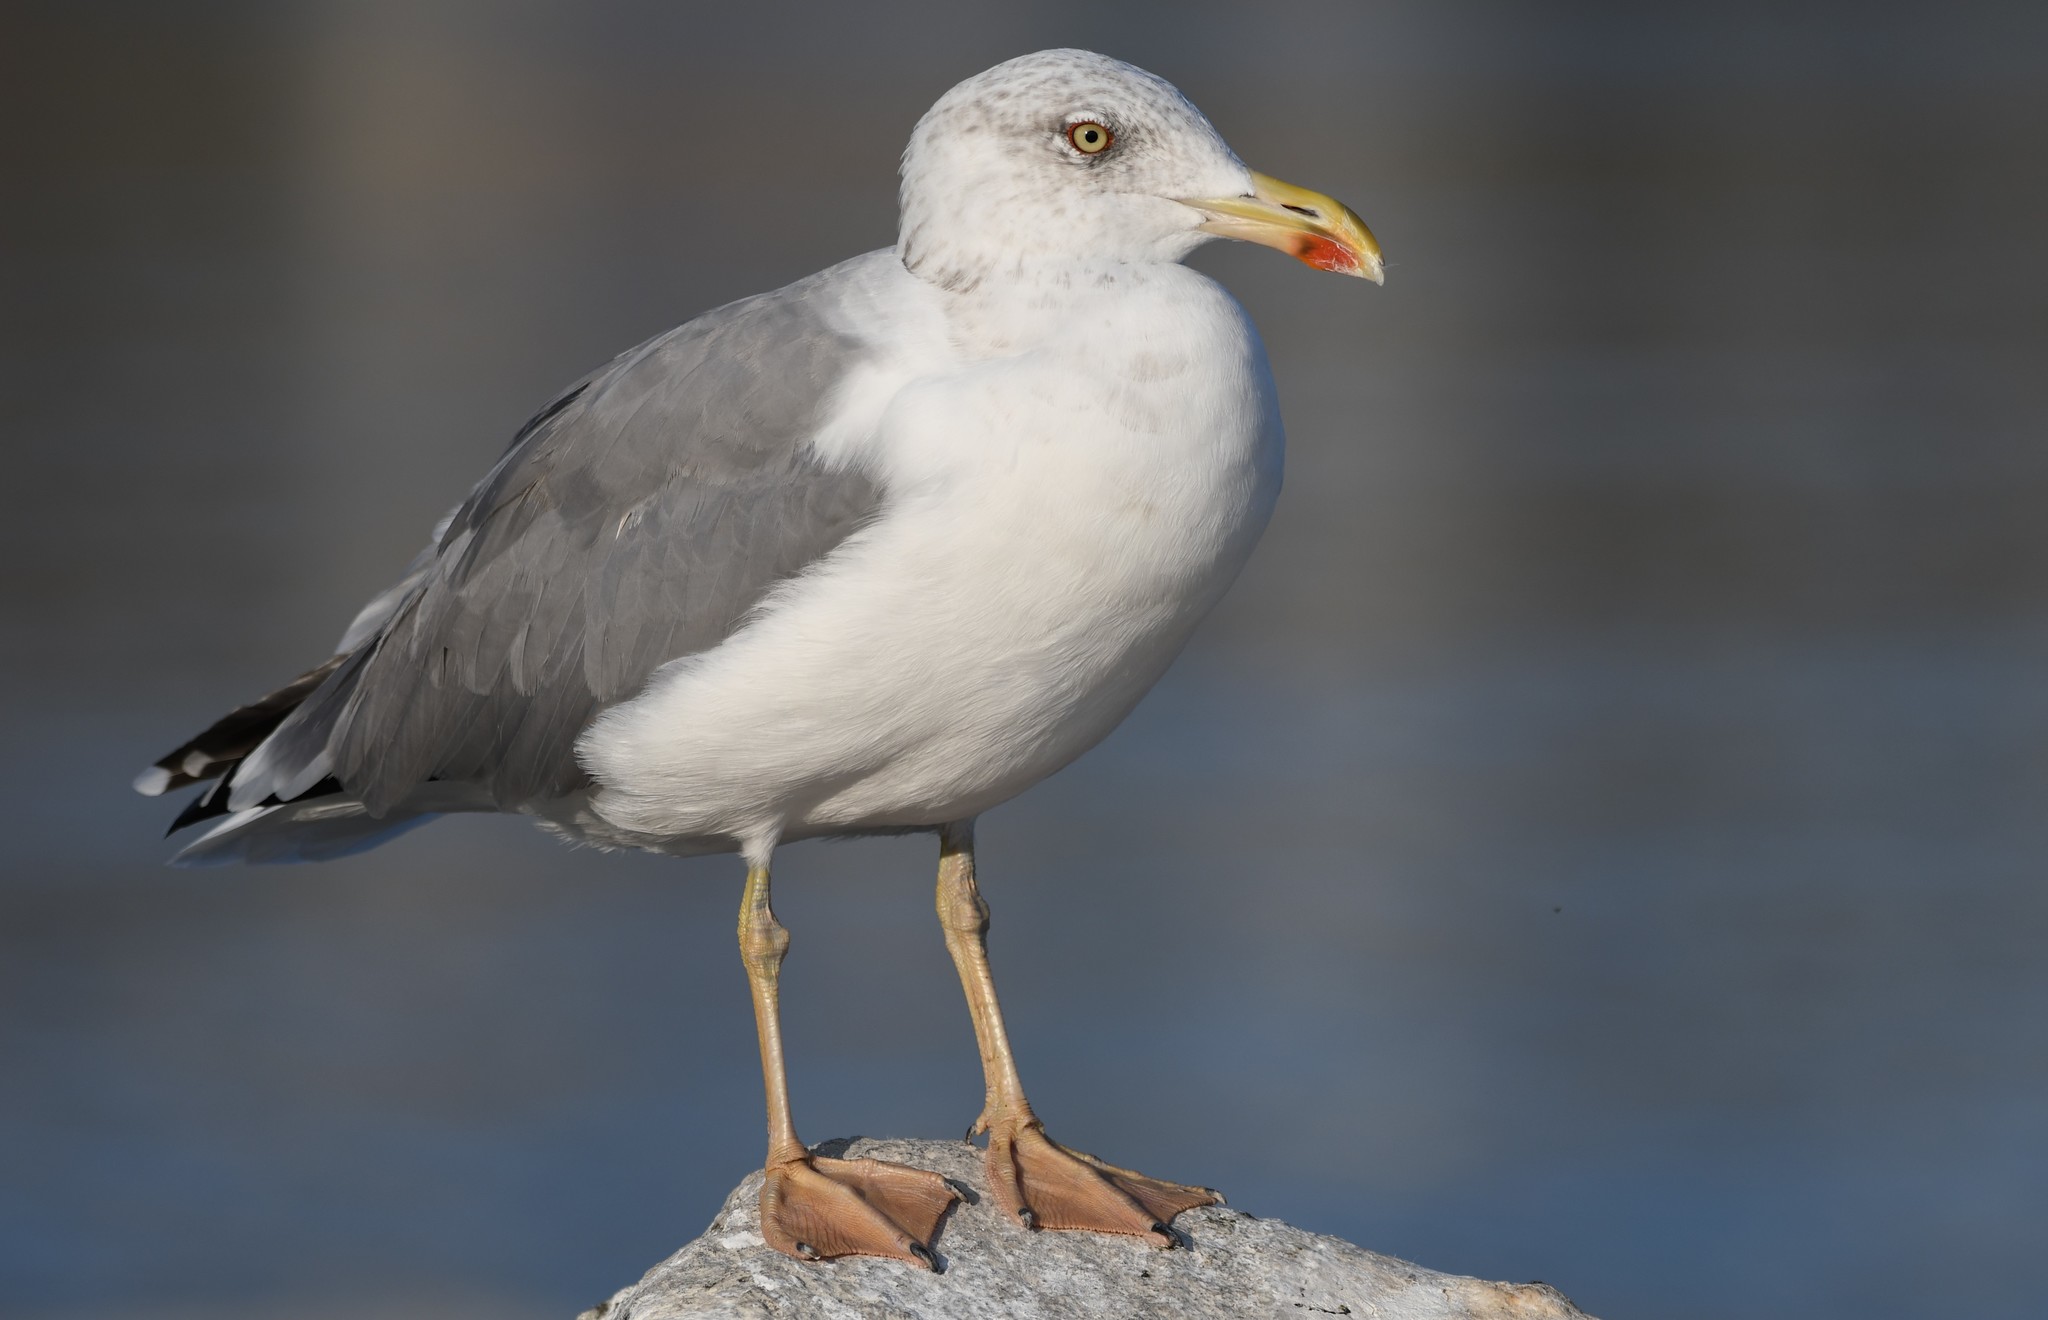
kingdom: Animalia
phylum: Chordata
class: Aves
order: Charadriiformes
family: Laridae
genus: Larus
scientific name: Larus michahellis
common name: Yellow-legged gull
